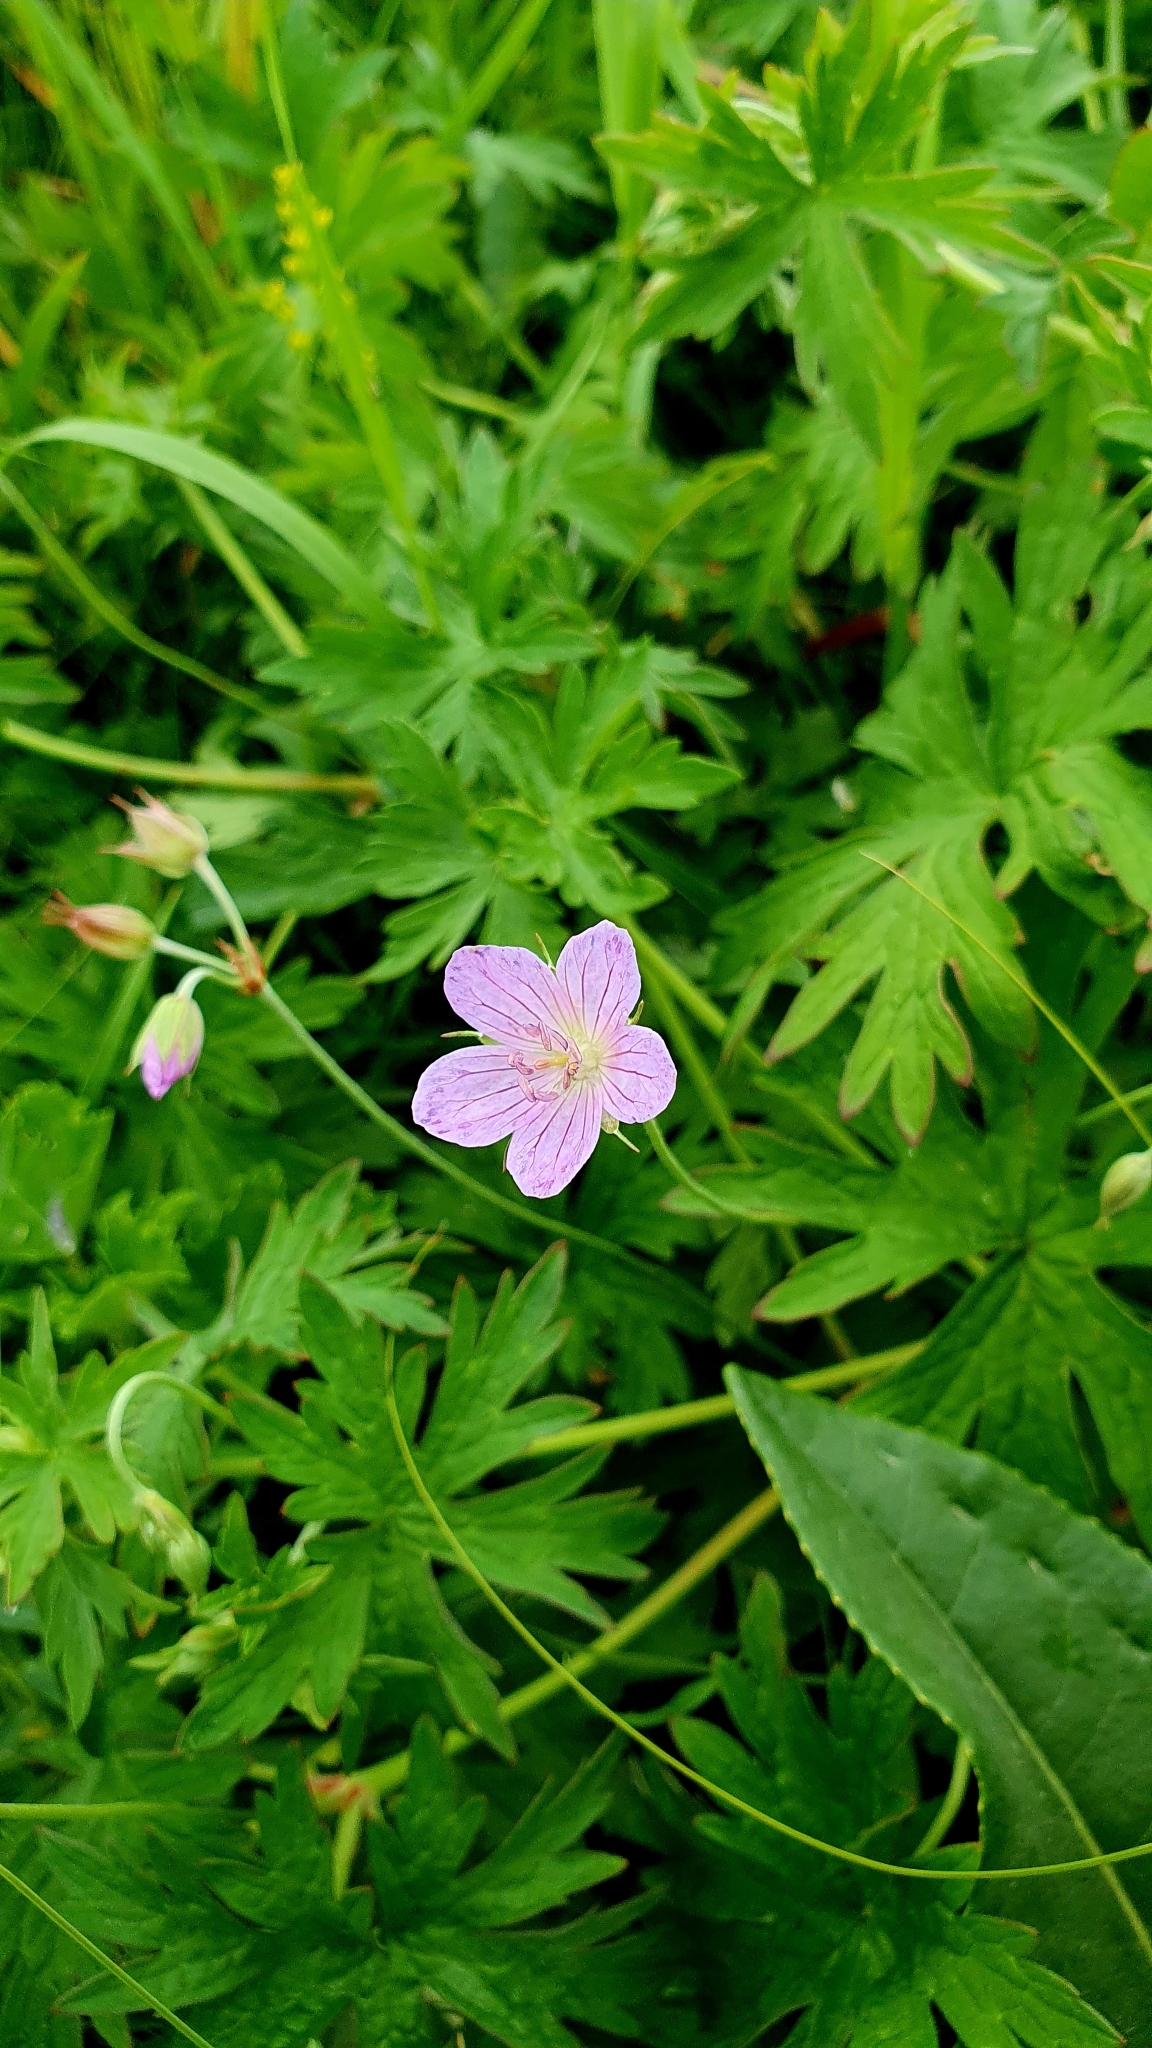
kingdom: Plantae
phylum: Tracheophyta
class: Magnoliopsida
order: Geraniales
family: Geraniaceae
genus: Geranium
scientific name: Geranium collinum
